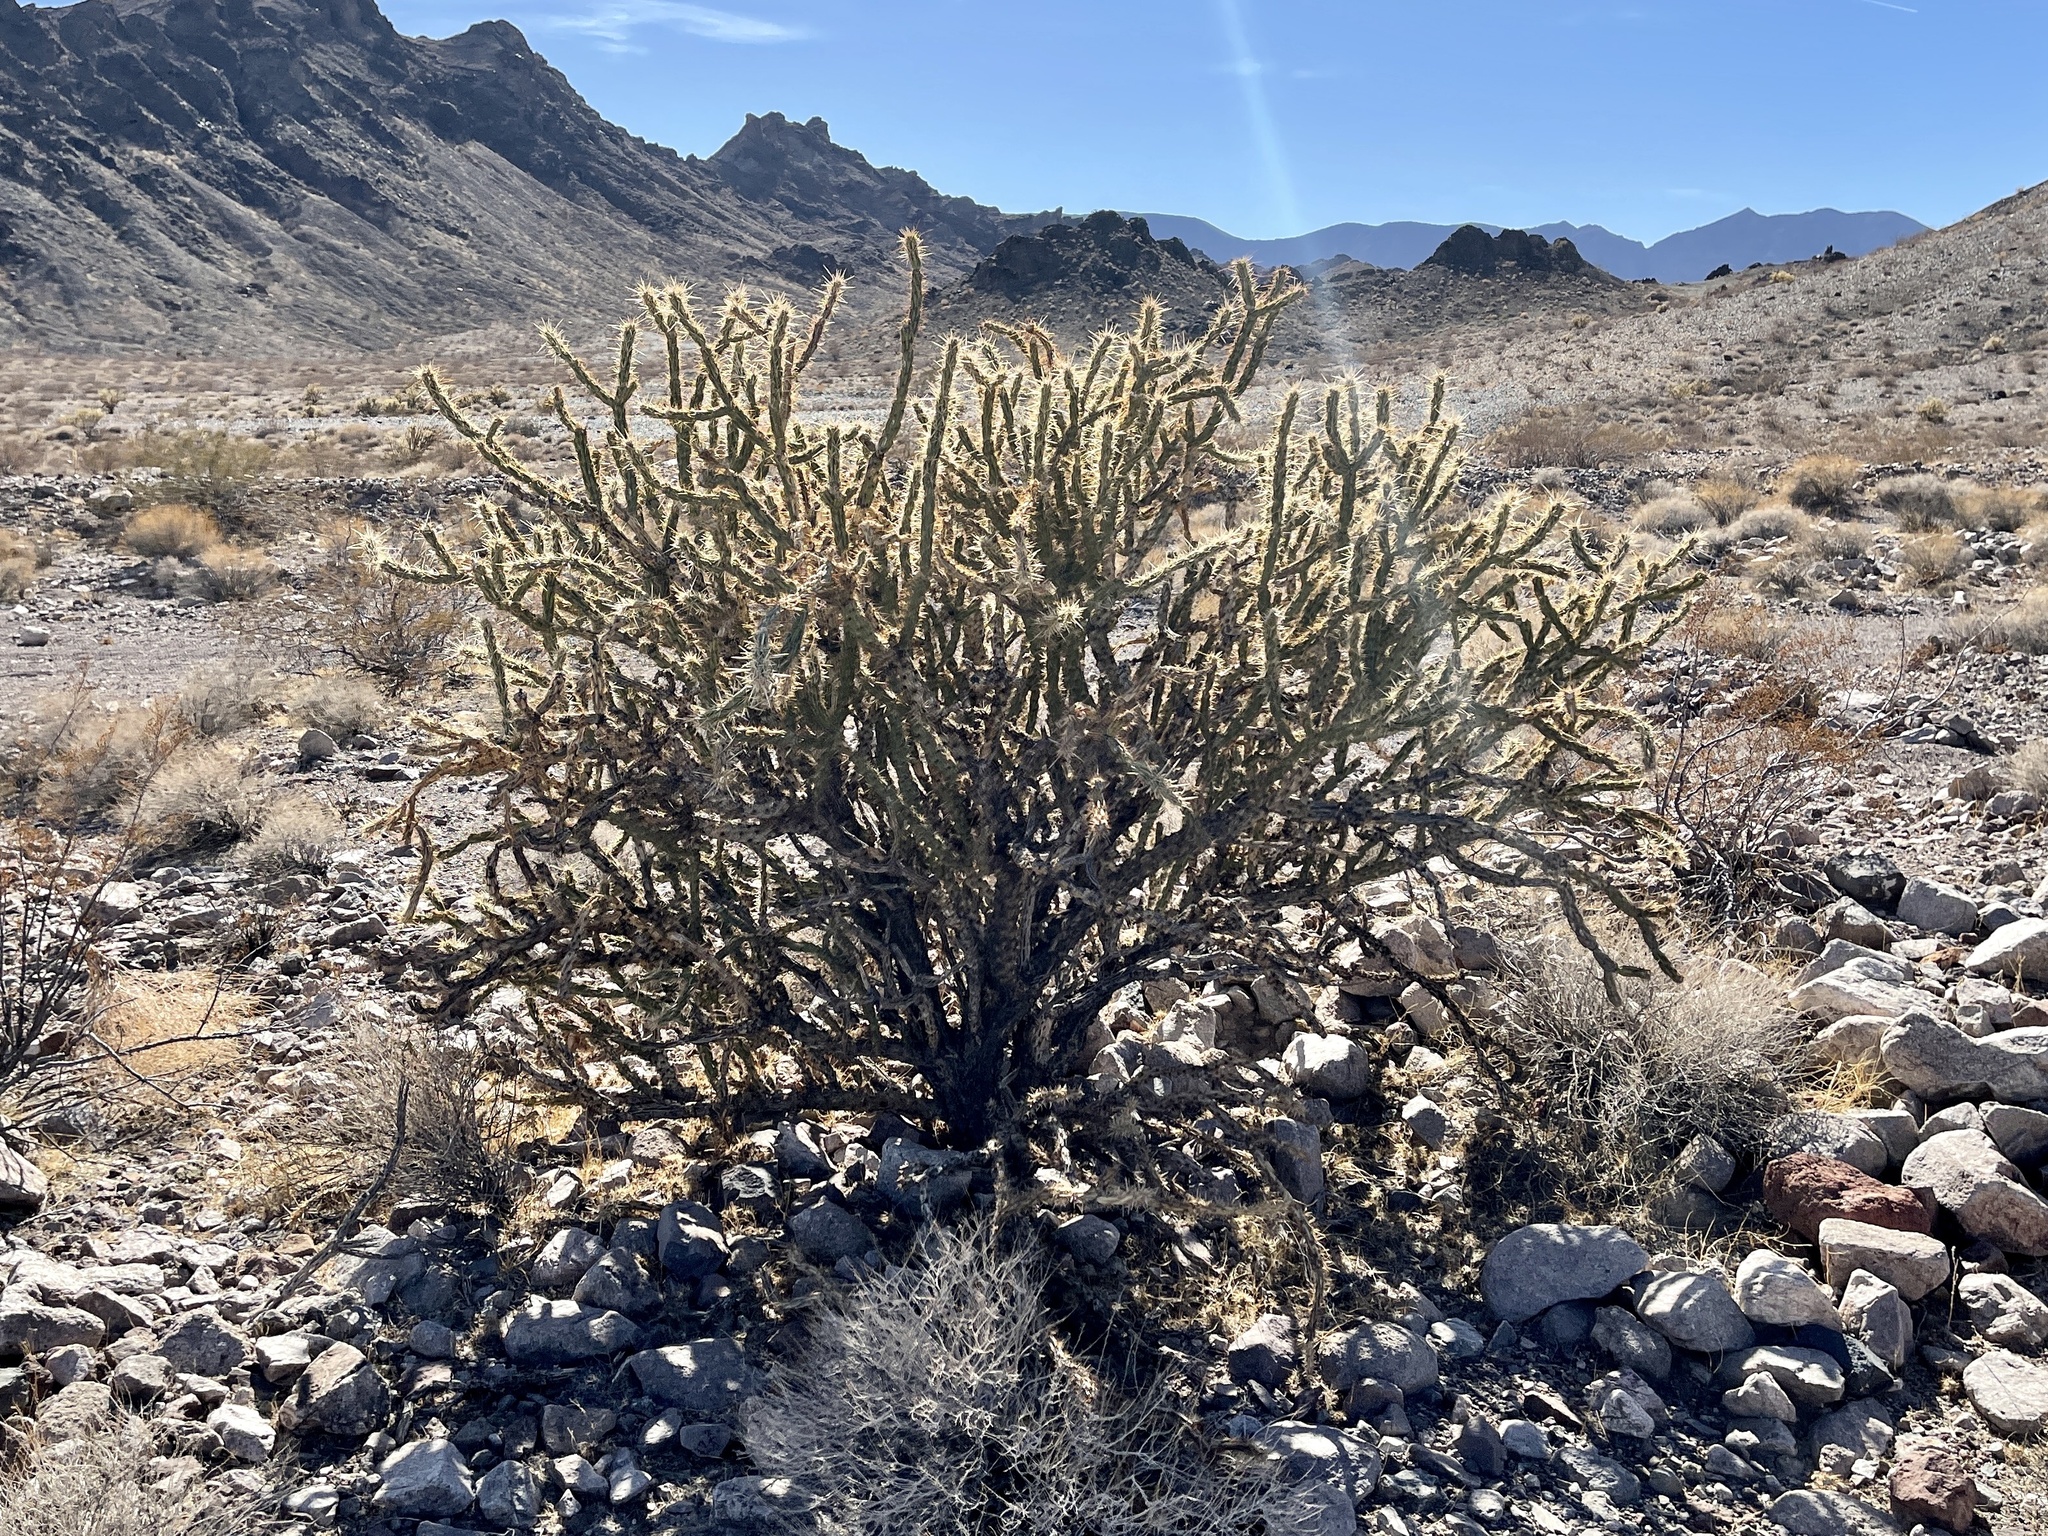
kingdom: Plantae
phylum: Tracheophyta
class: Magnoliopsida
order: Caryophyllales
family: Cactaceae
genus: Cylindropuntia
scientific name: Cylindropuntia acanthocarpa
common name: Buckhorn cholla
